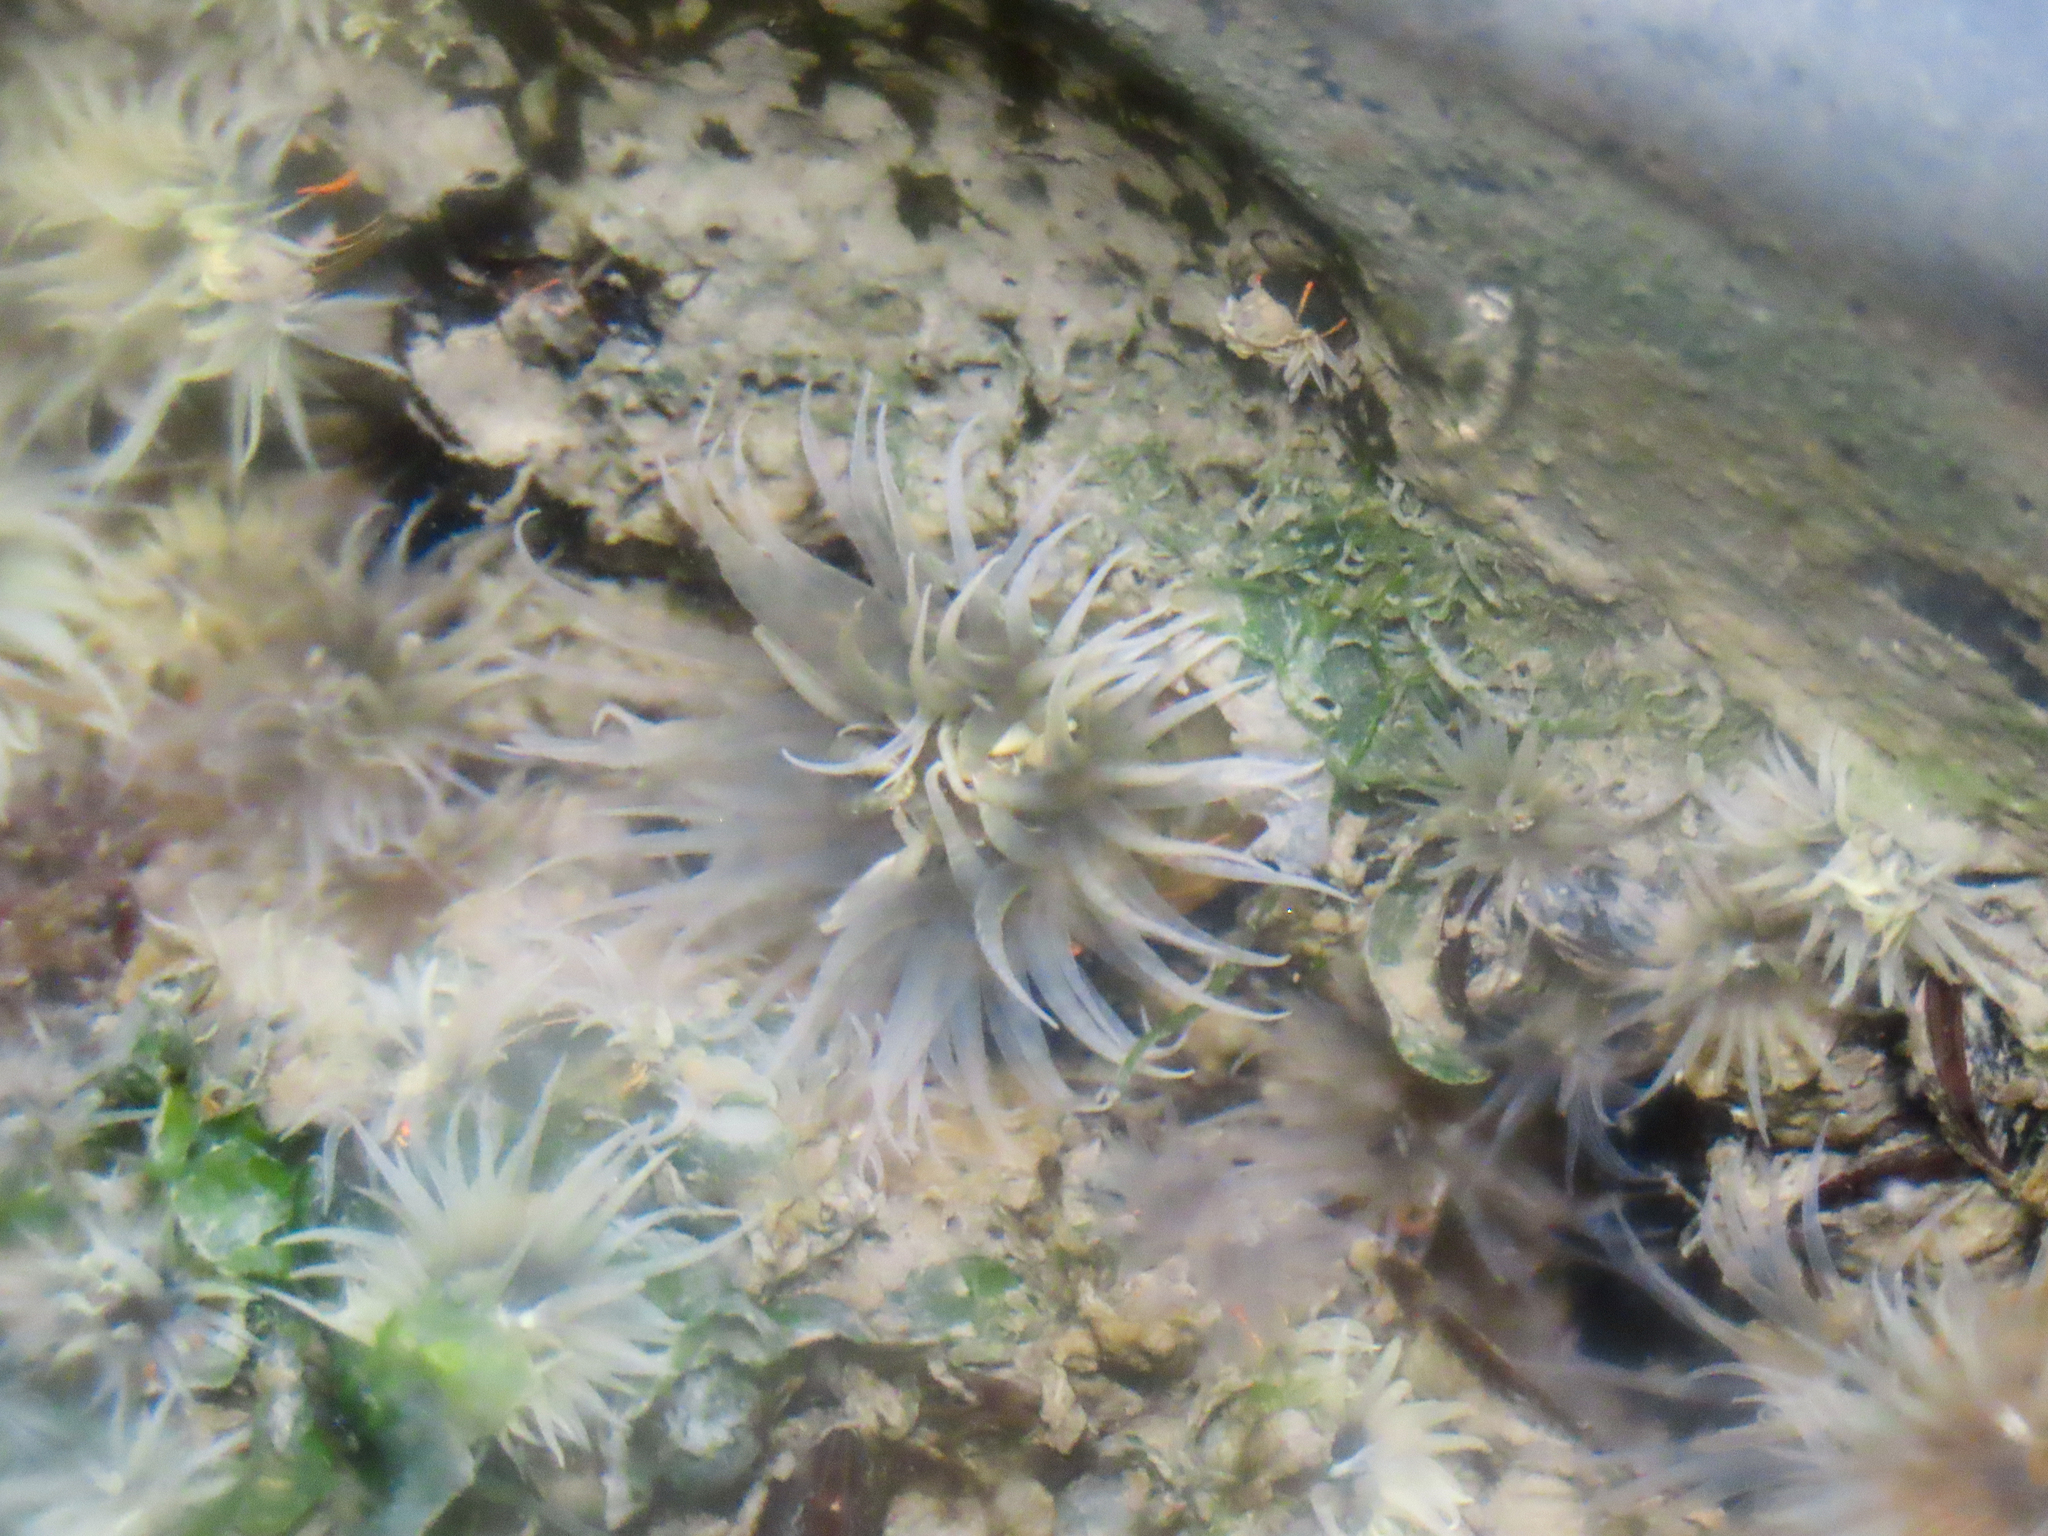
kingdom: Animalia
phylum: Cnidaria
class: Anthozoa
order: Actiniaria
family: Diadumenidae
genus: Diadumene
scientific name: Diadumene lineata
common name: Orange-striped anemone
